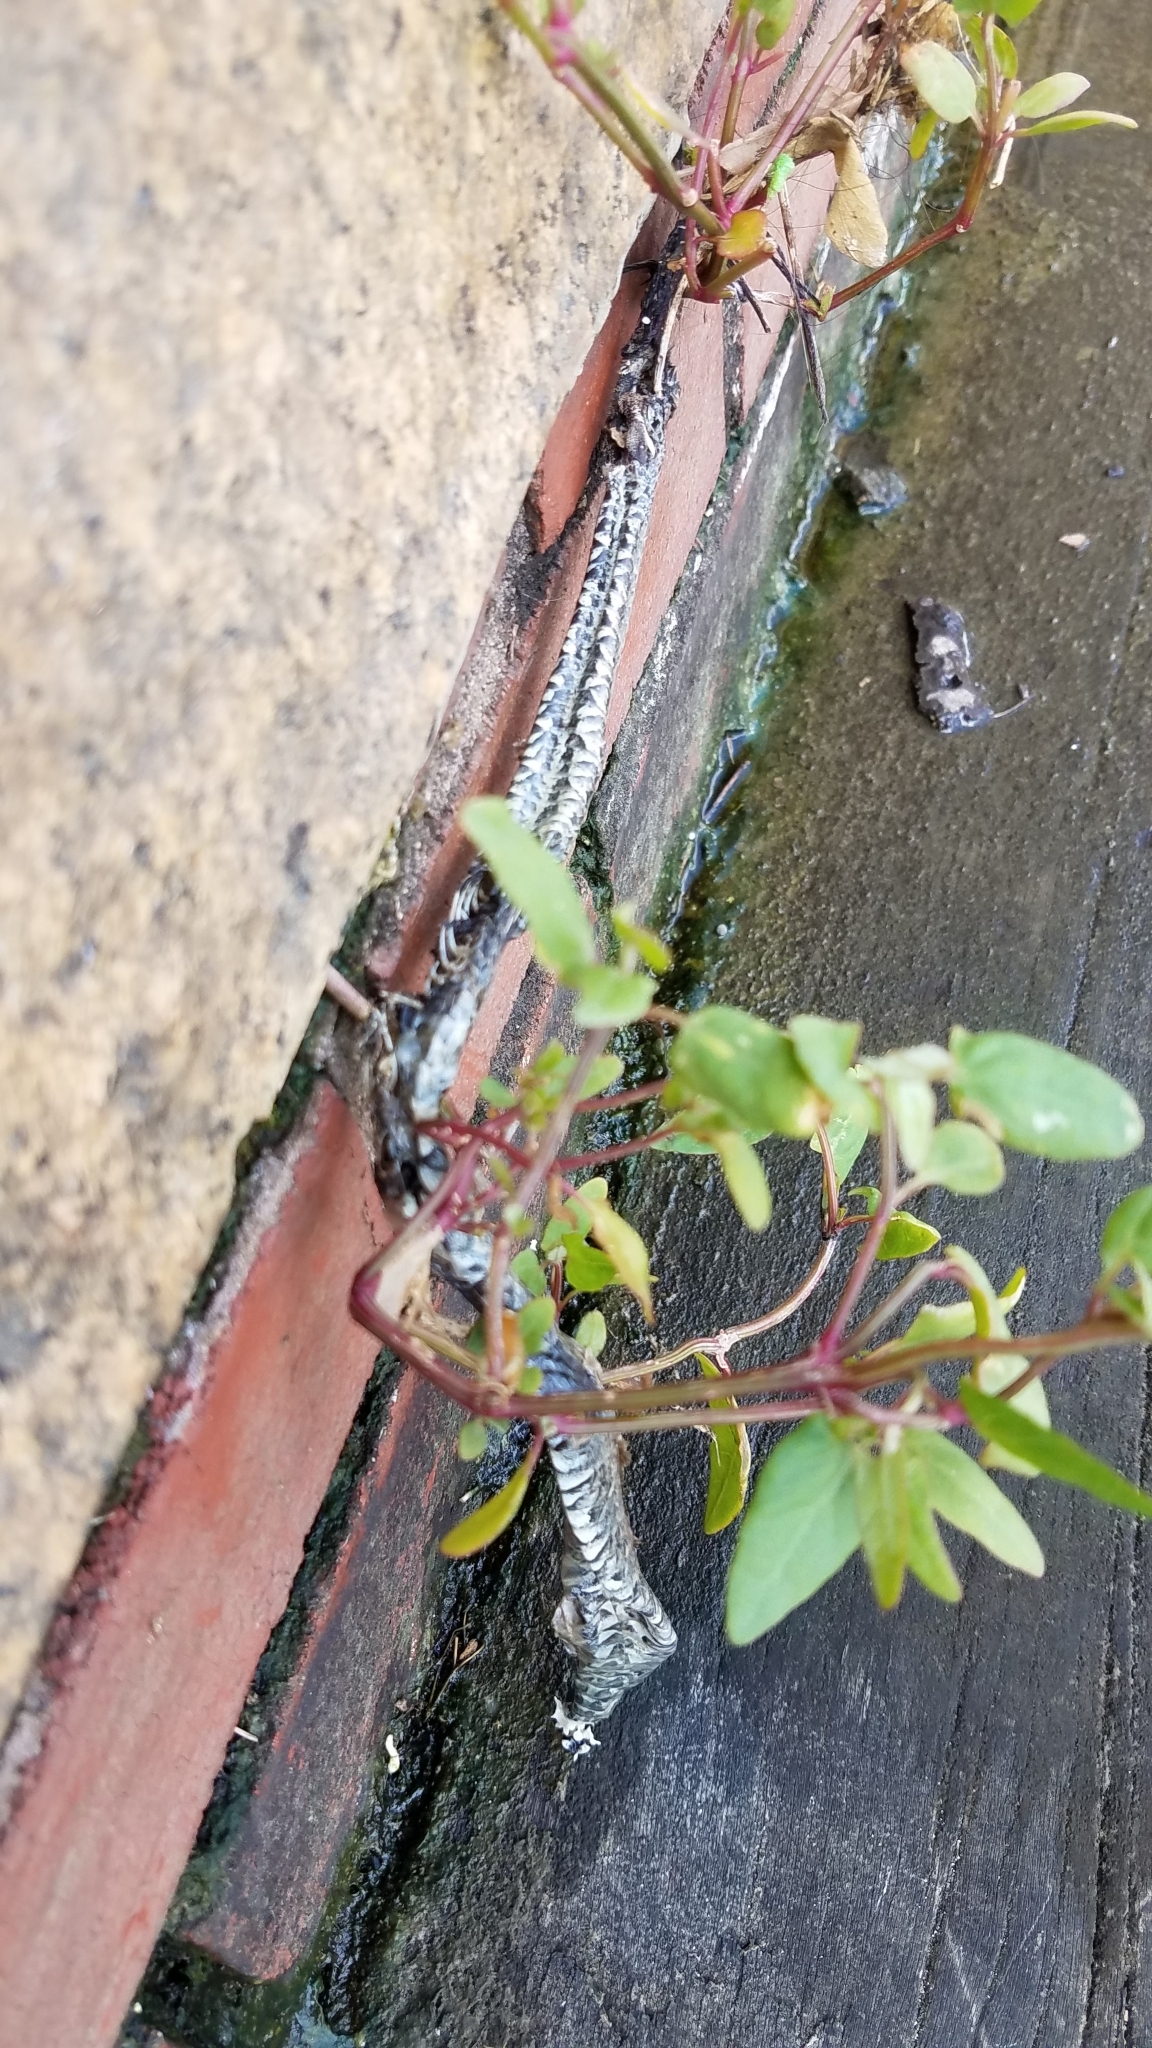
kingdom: Animalia
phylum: Chordata
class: Squamata
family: Colubridae
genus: Nerodia
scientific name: Nerodia sipedon
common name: Northern water snake
